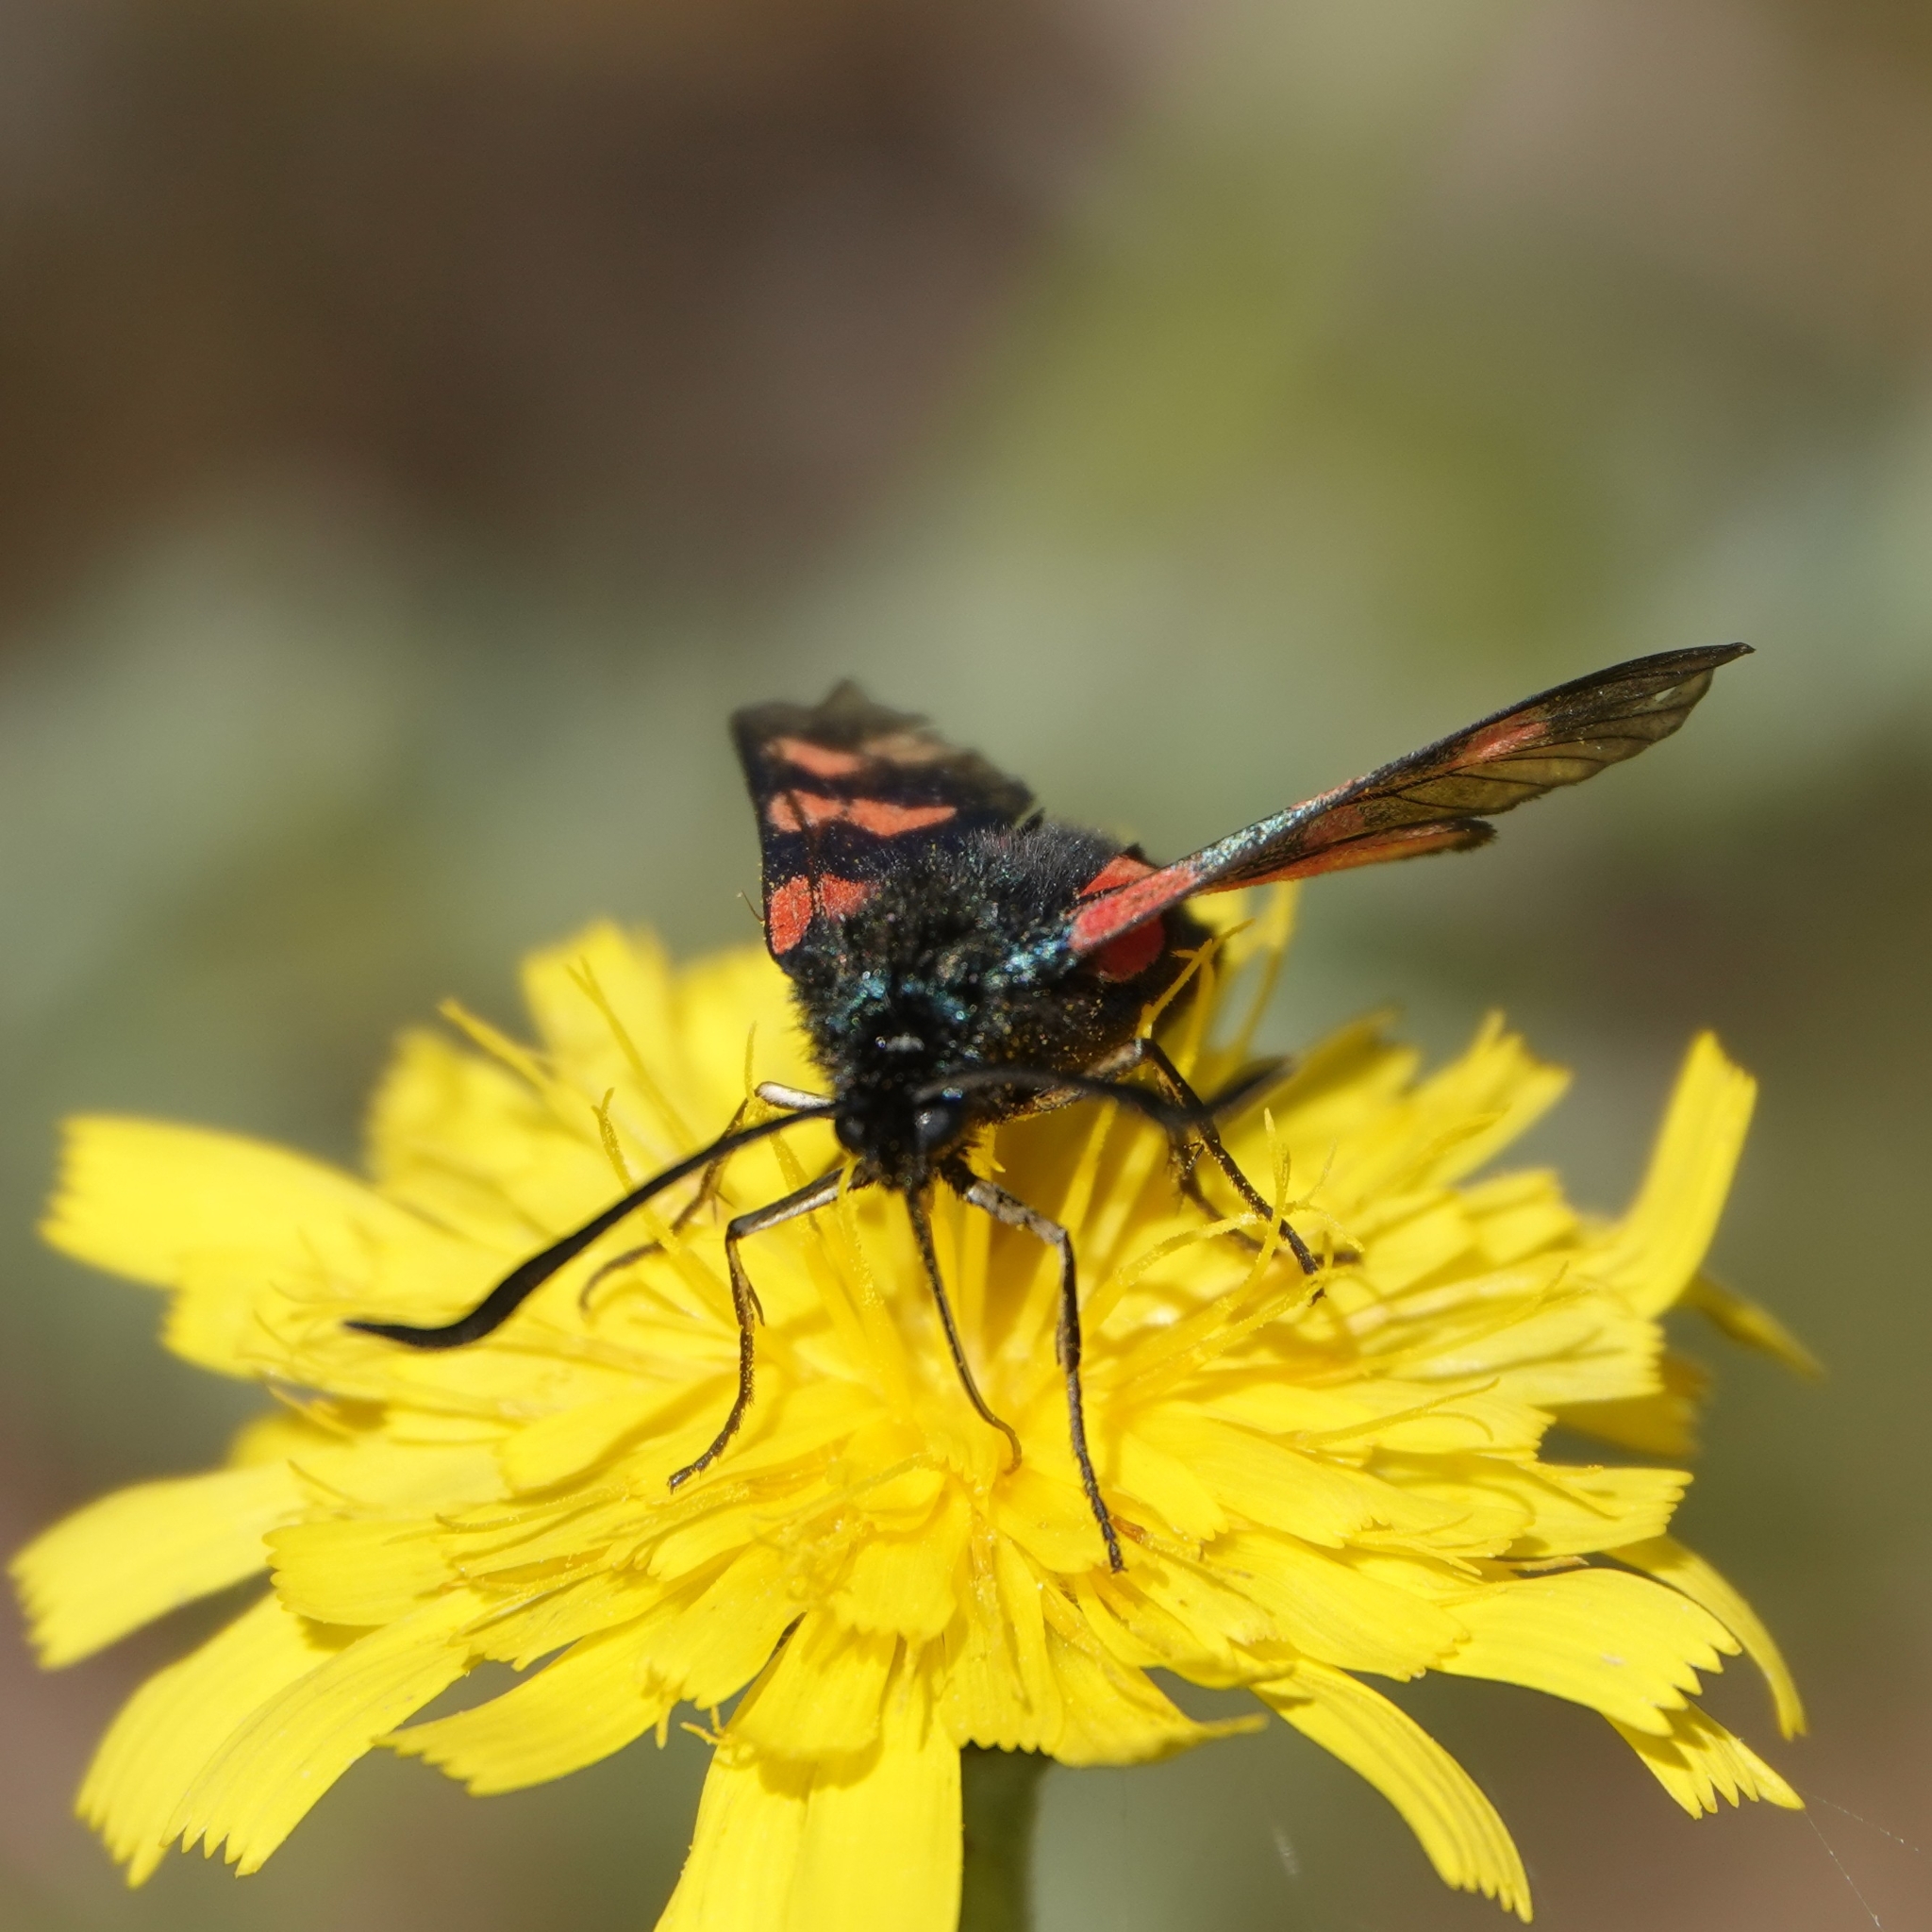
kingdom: Animalia
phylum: Arthropoda
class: Insecta
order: Lepidoptera
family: Zygaenidae
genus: Zygaena
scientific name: Zygaena filipendulae
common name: Six-spot burnet
